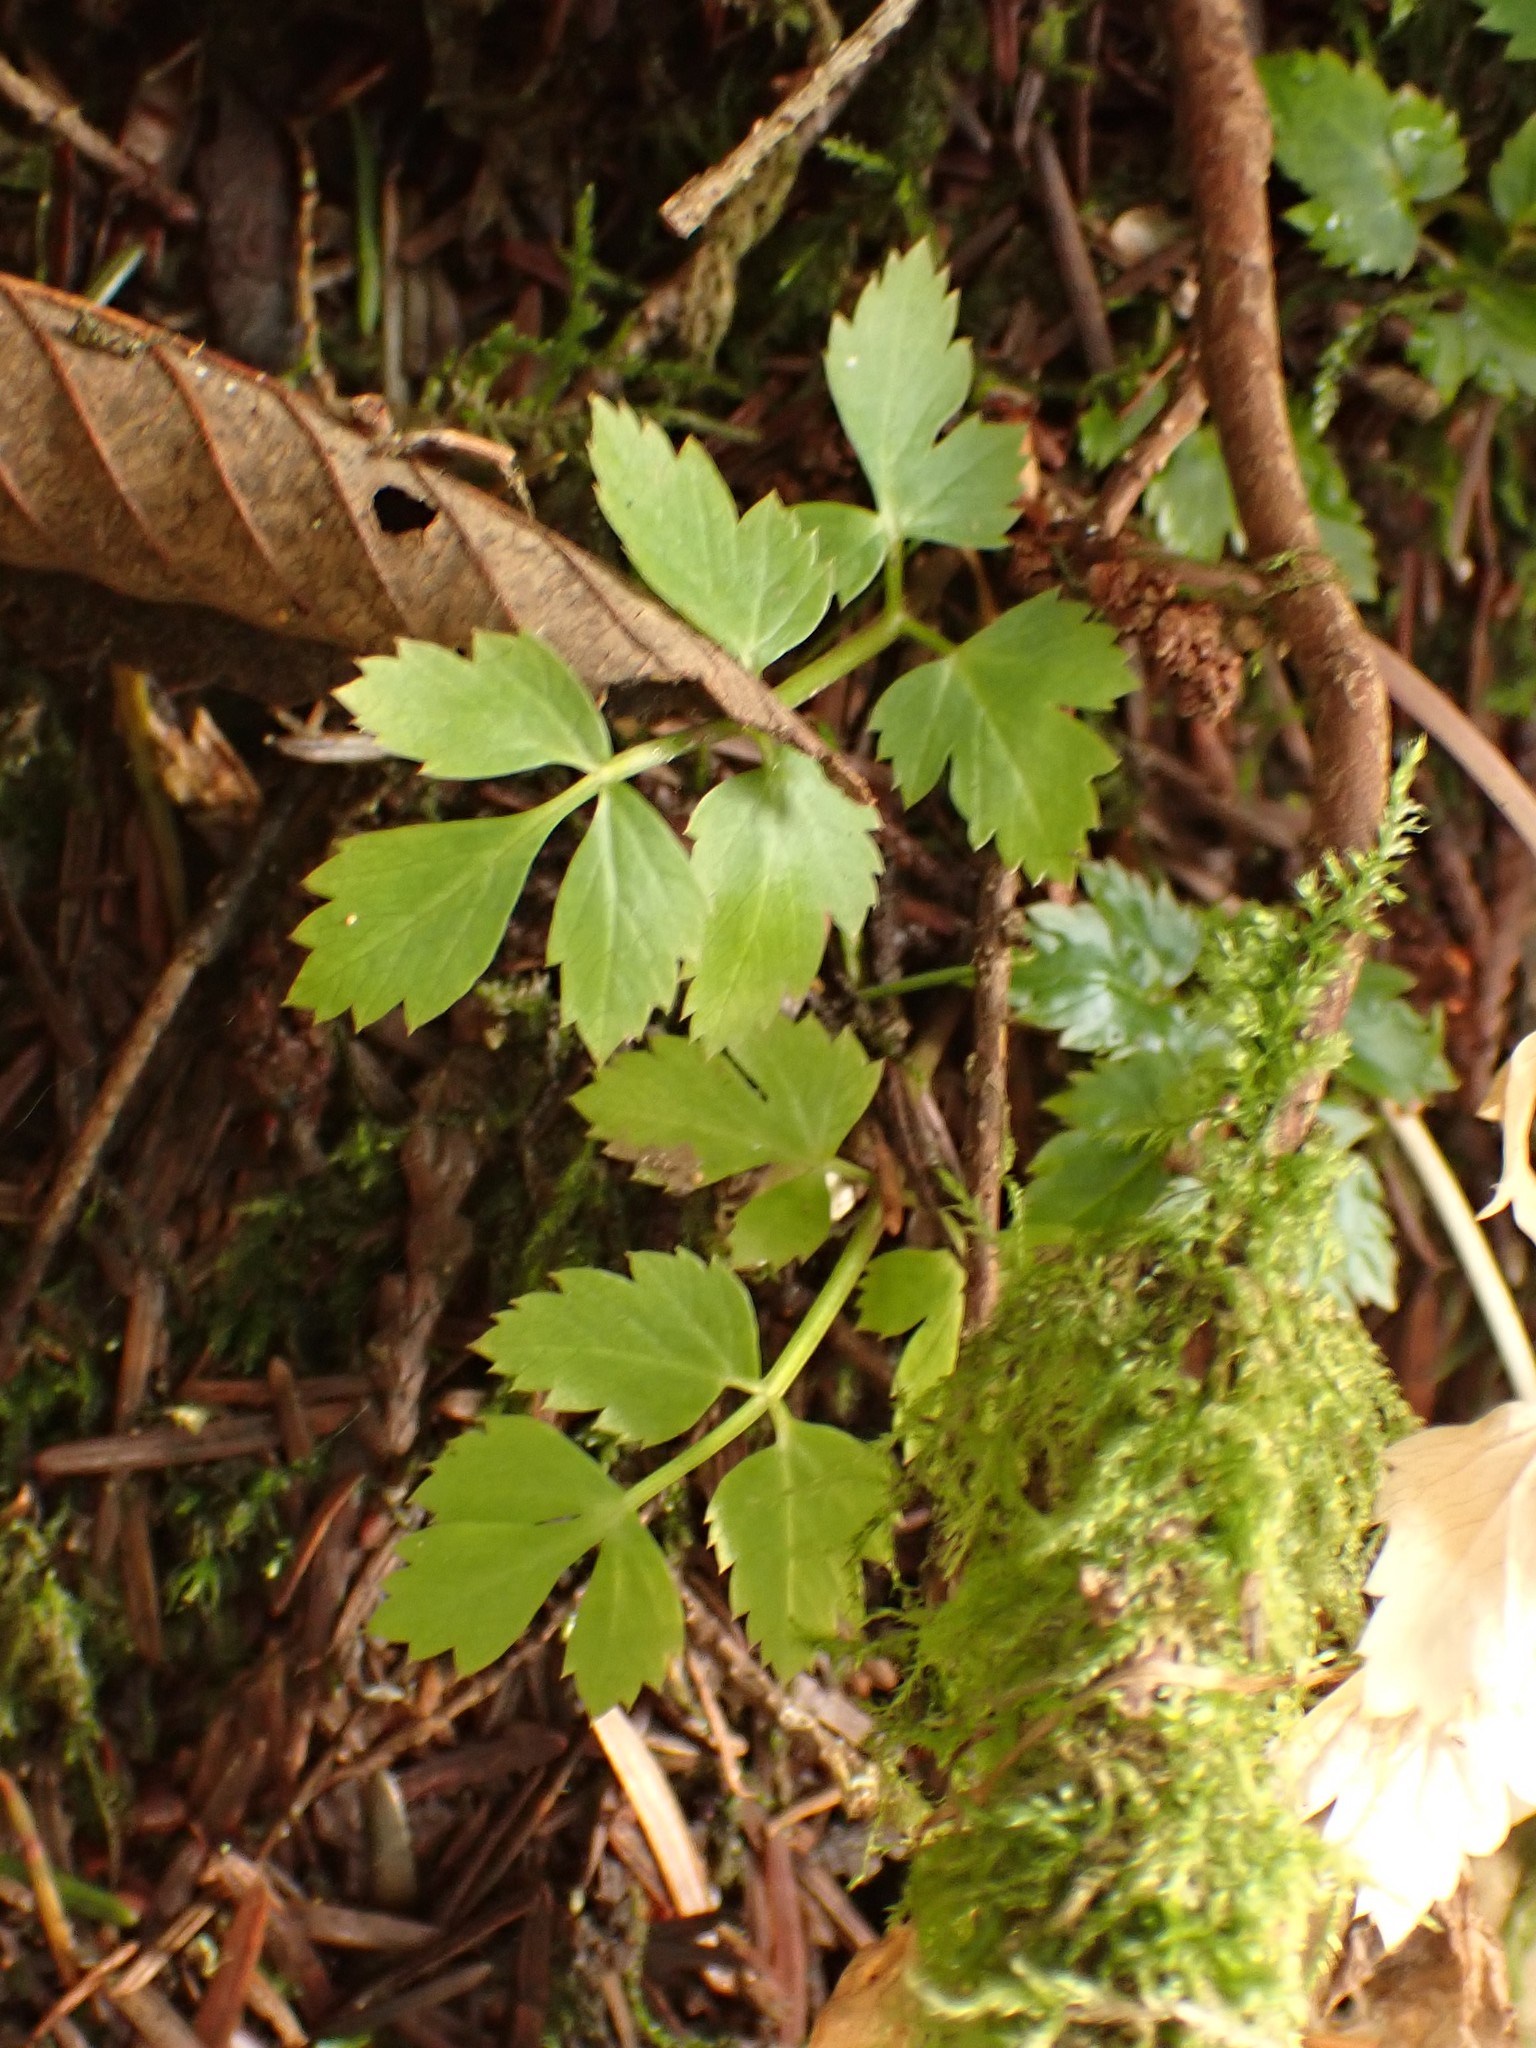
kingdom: Plantae
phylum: Tracheophyta
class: Magnoliopsida
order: Apiales
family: Apiaceae
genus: Oenanthe
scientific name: Oenanthe sarmentosa
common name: American water-parsley
